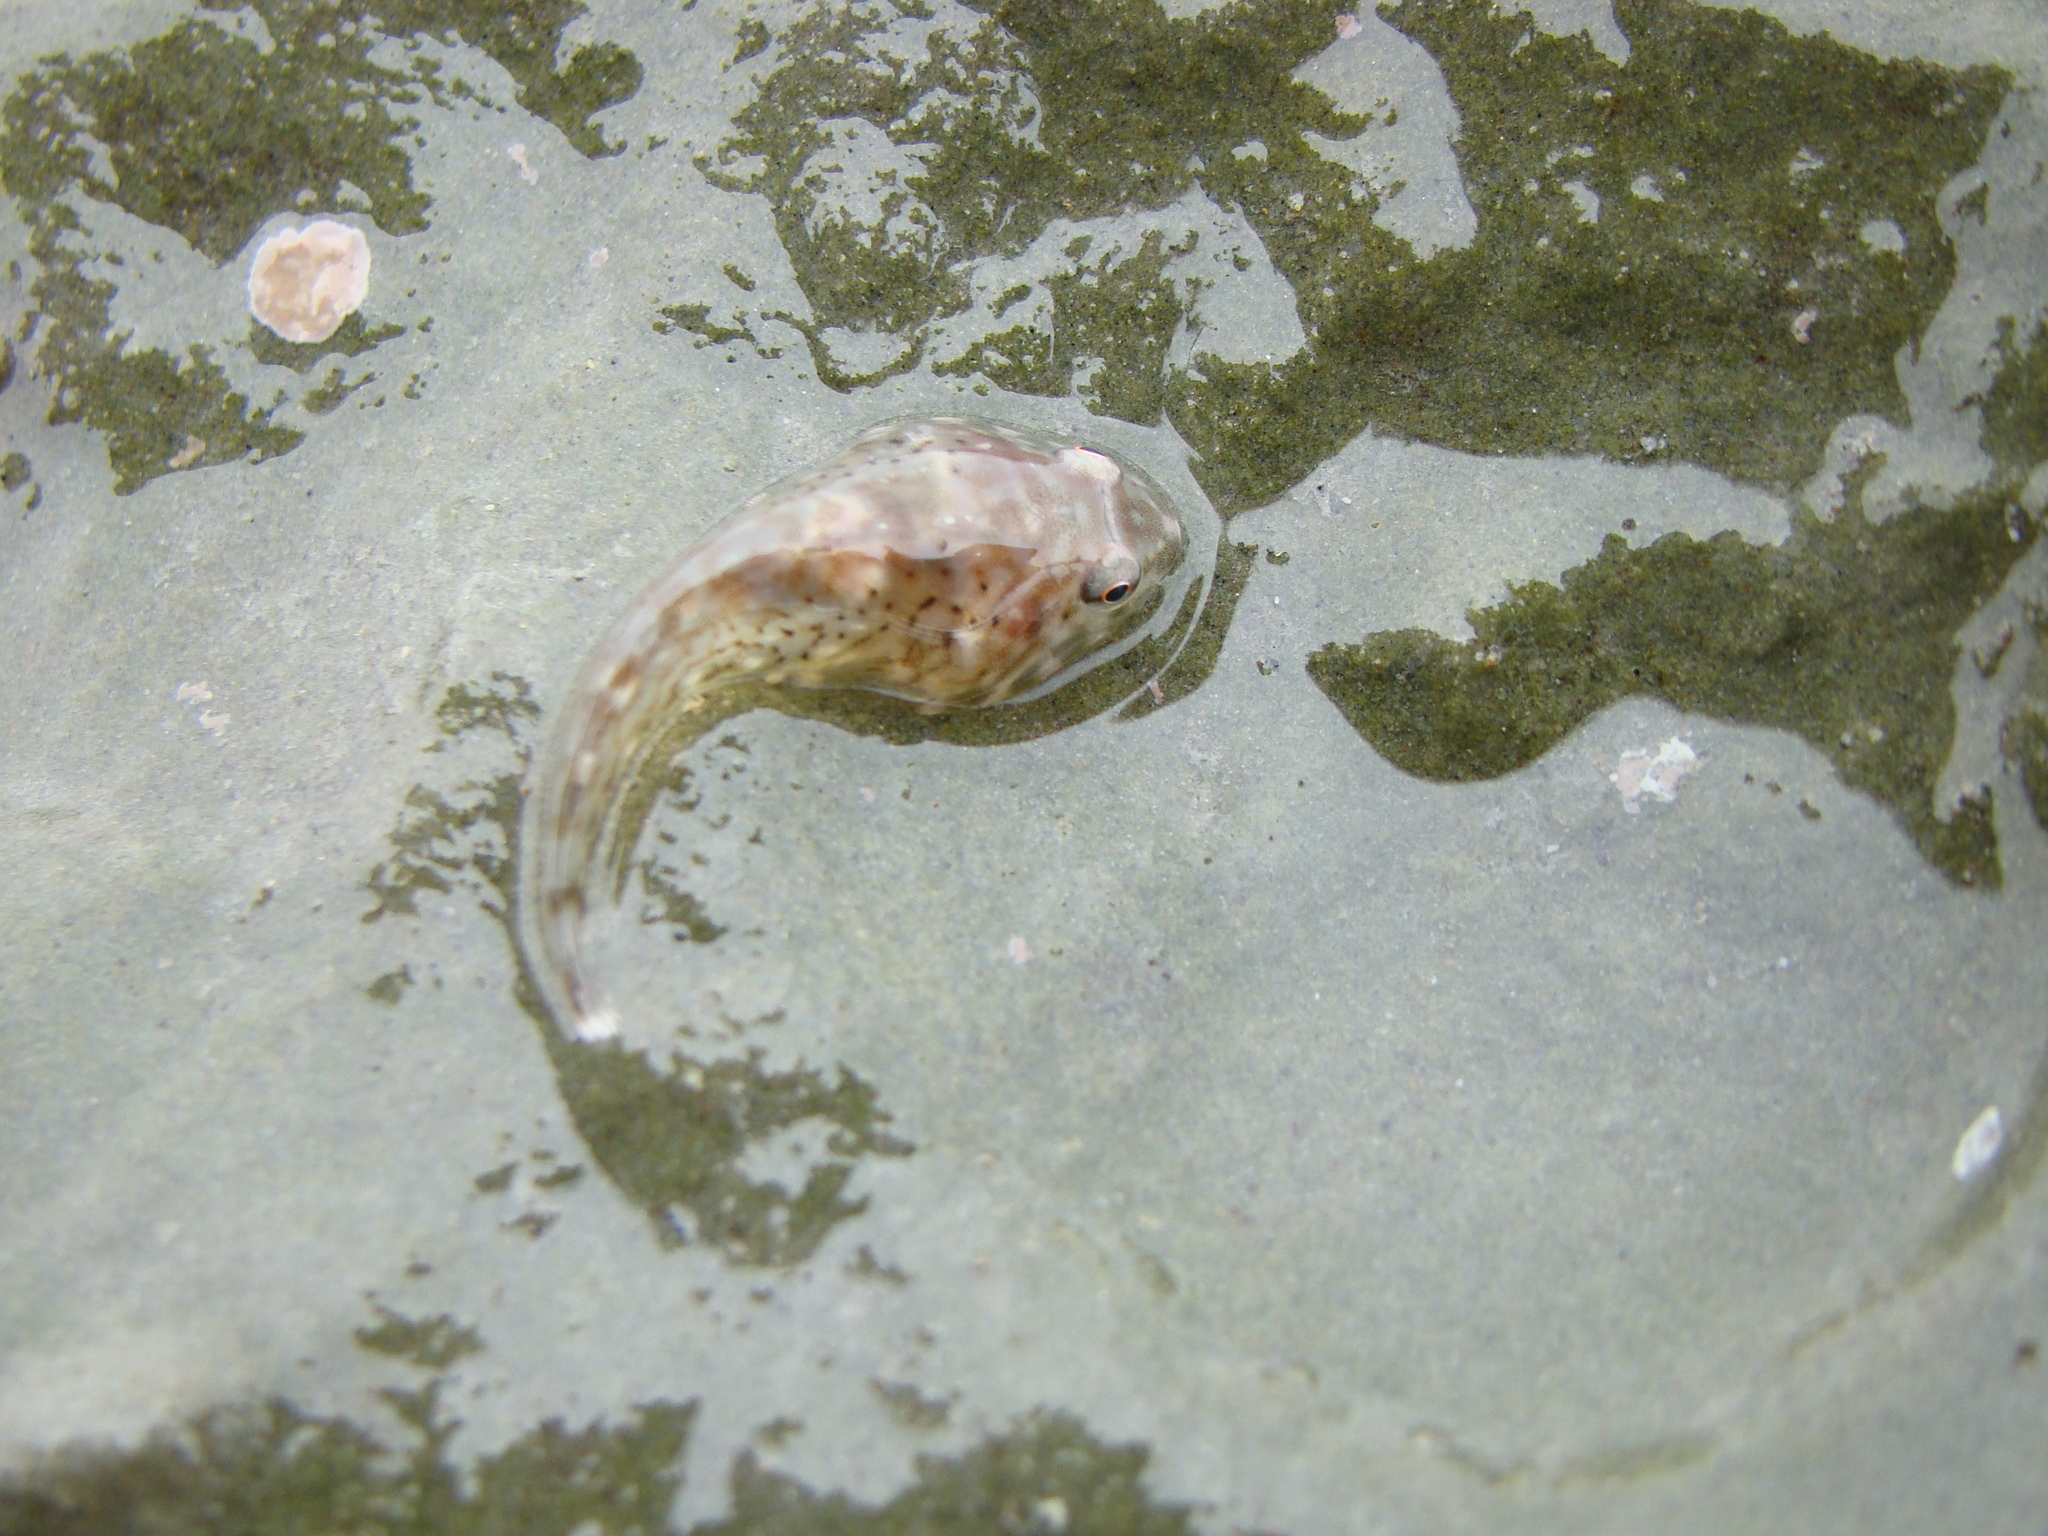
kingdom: Animalia
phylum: Chordata
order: Gobiesociformes
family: Gobiesocidae
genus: Diplocrepis
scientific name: Diplocrepis puniceus
